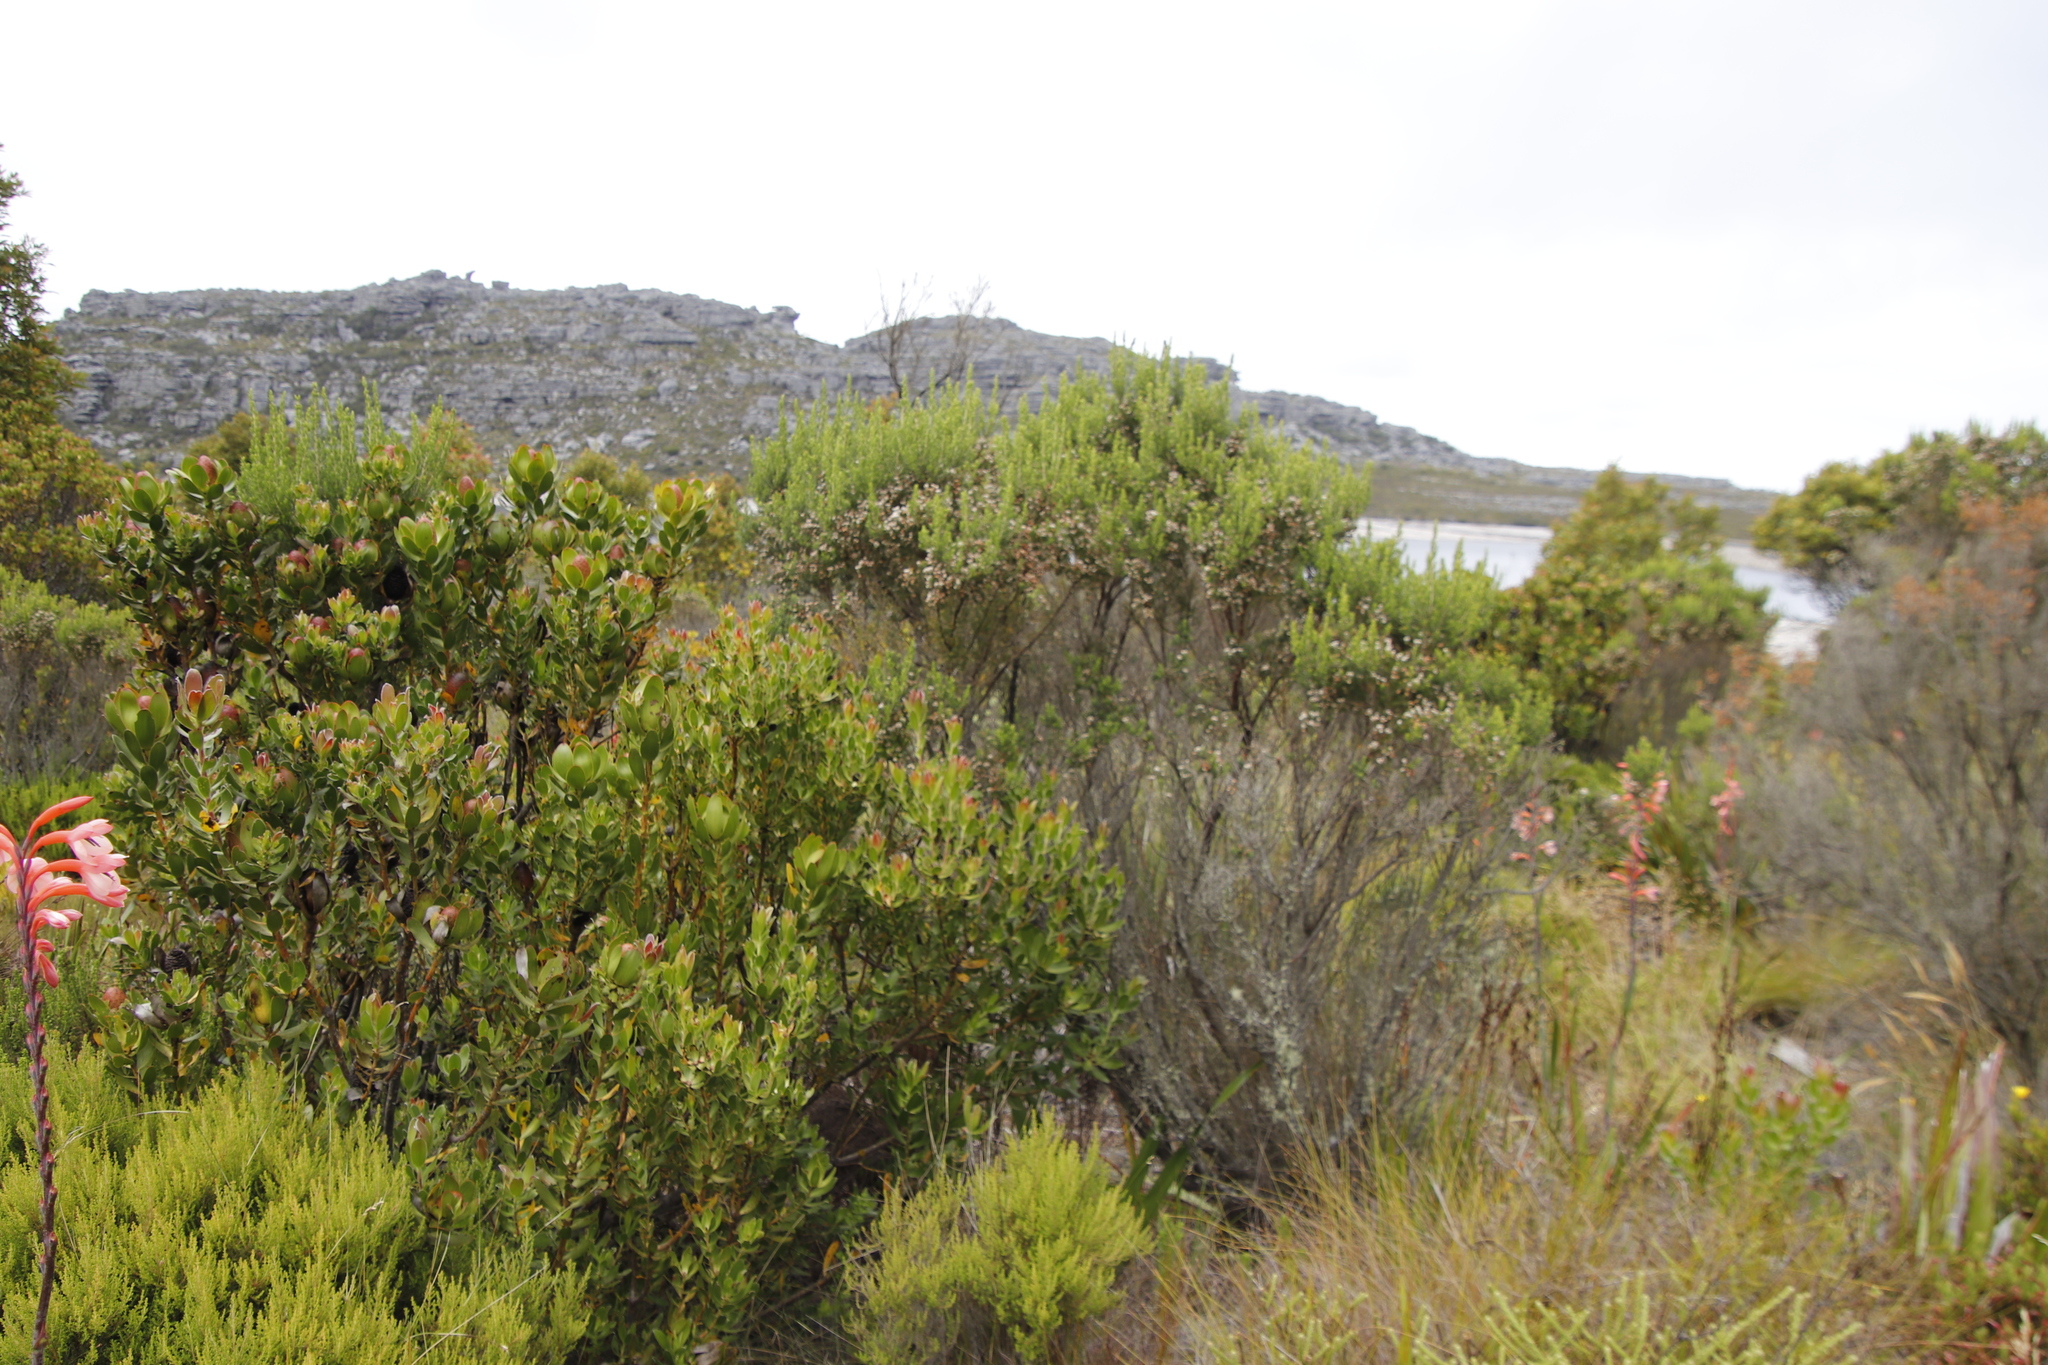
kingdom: Plantae
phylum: Tracheophyta
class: Magnoliopsida
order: Ericales
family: Ericaceae
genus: Erica
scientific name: Erica triflora
